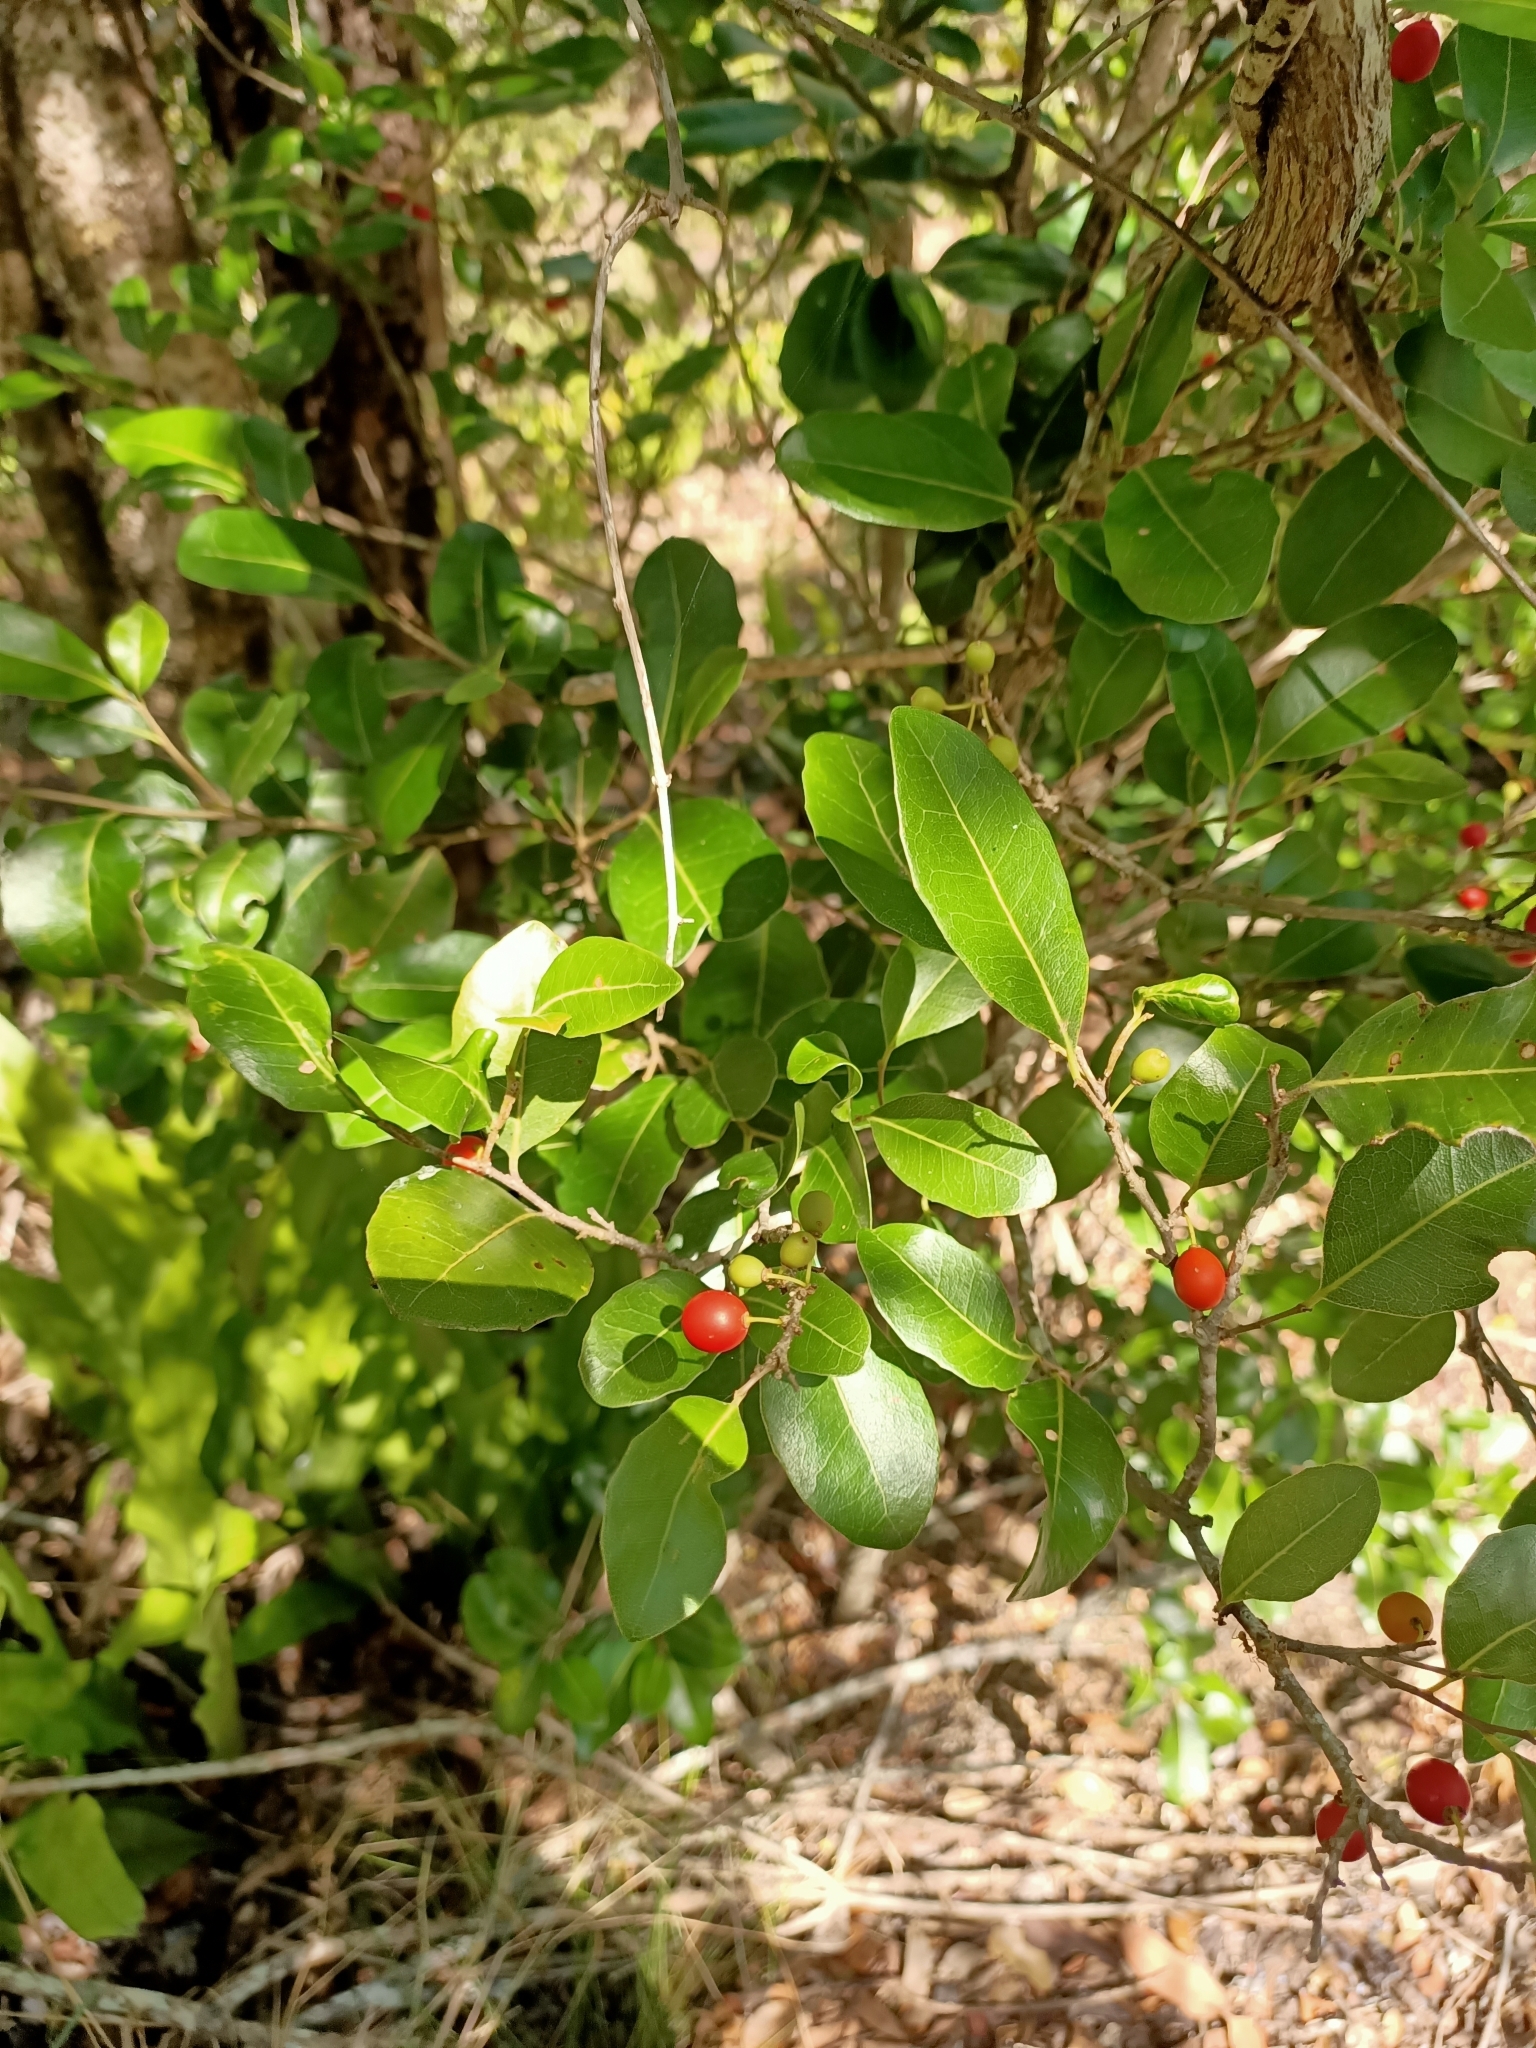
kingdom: Plantae
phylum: Tracheophyta
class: Magnoliopsida
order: Malpighiales
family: Putranjivaceae
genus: Drypetes
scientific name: Drypetes deplanchei
